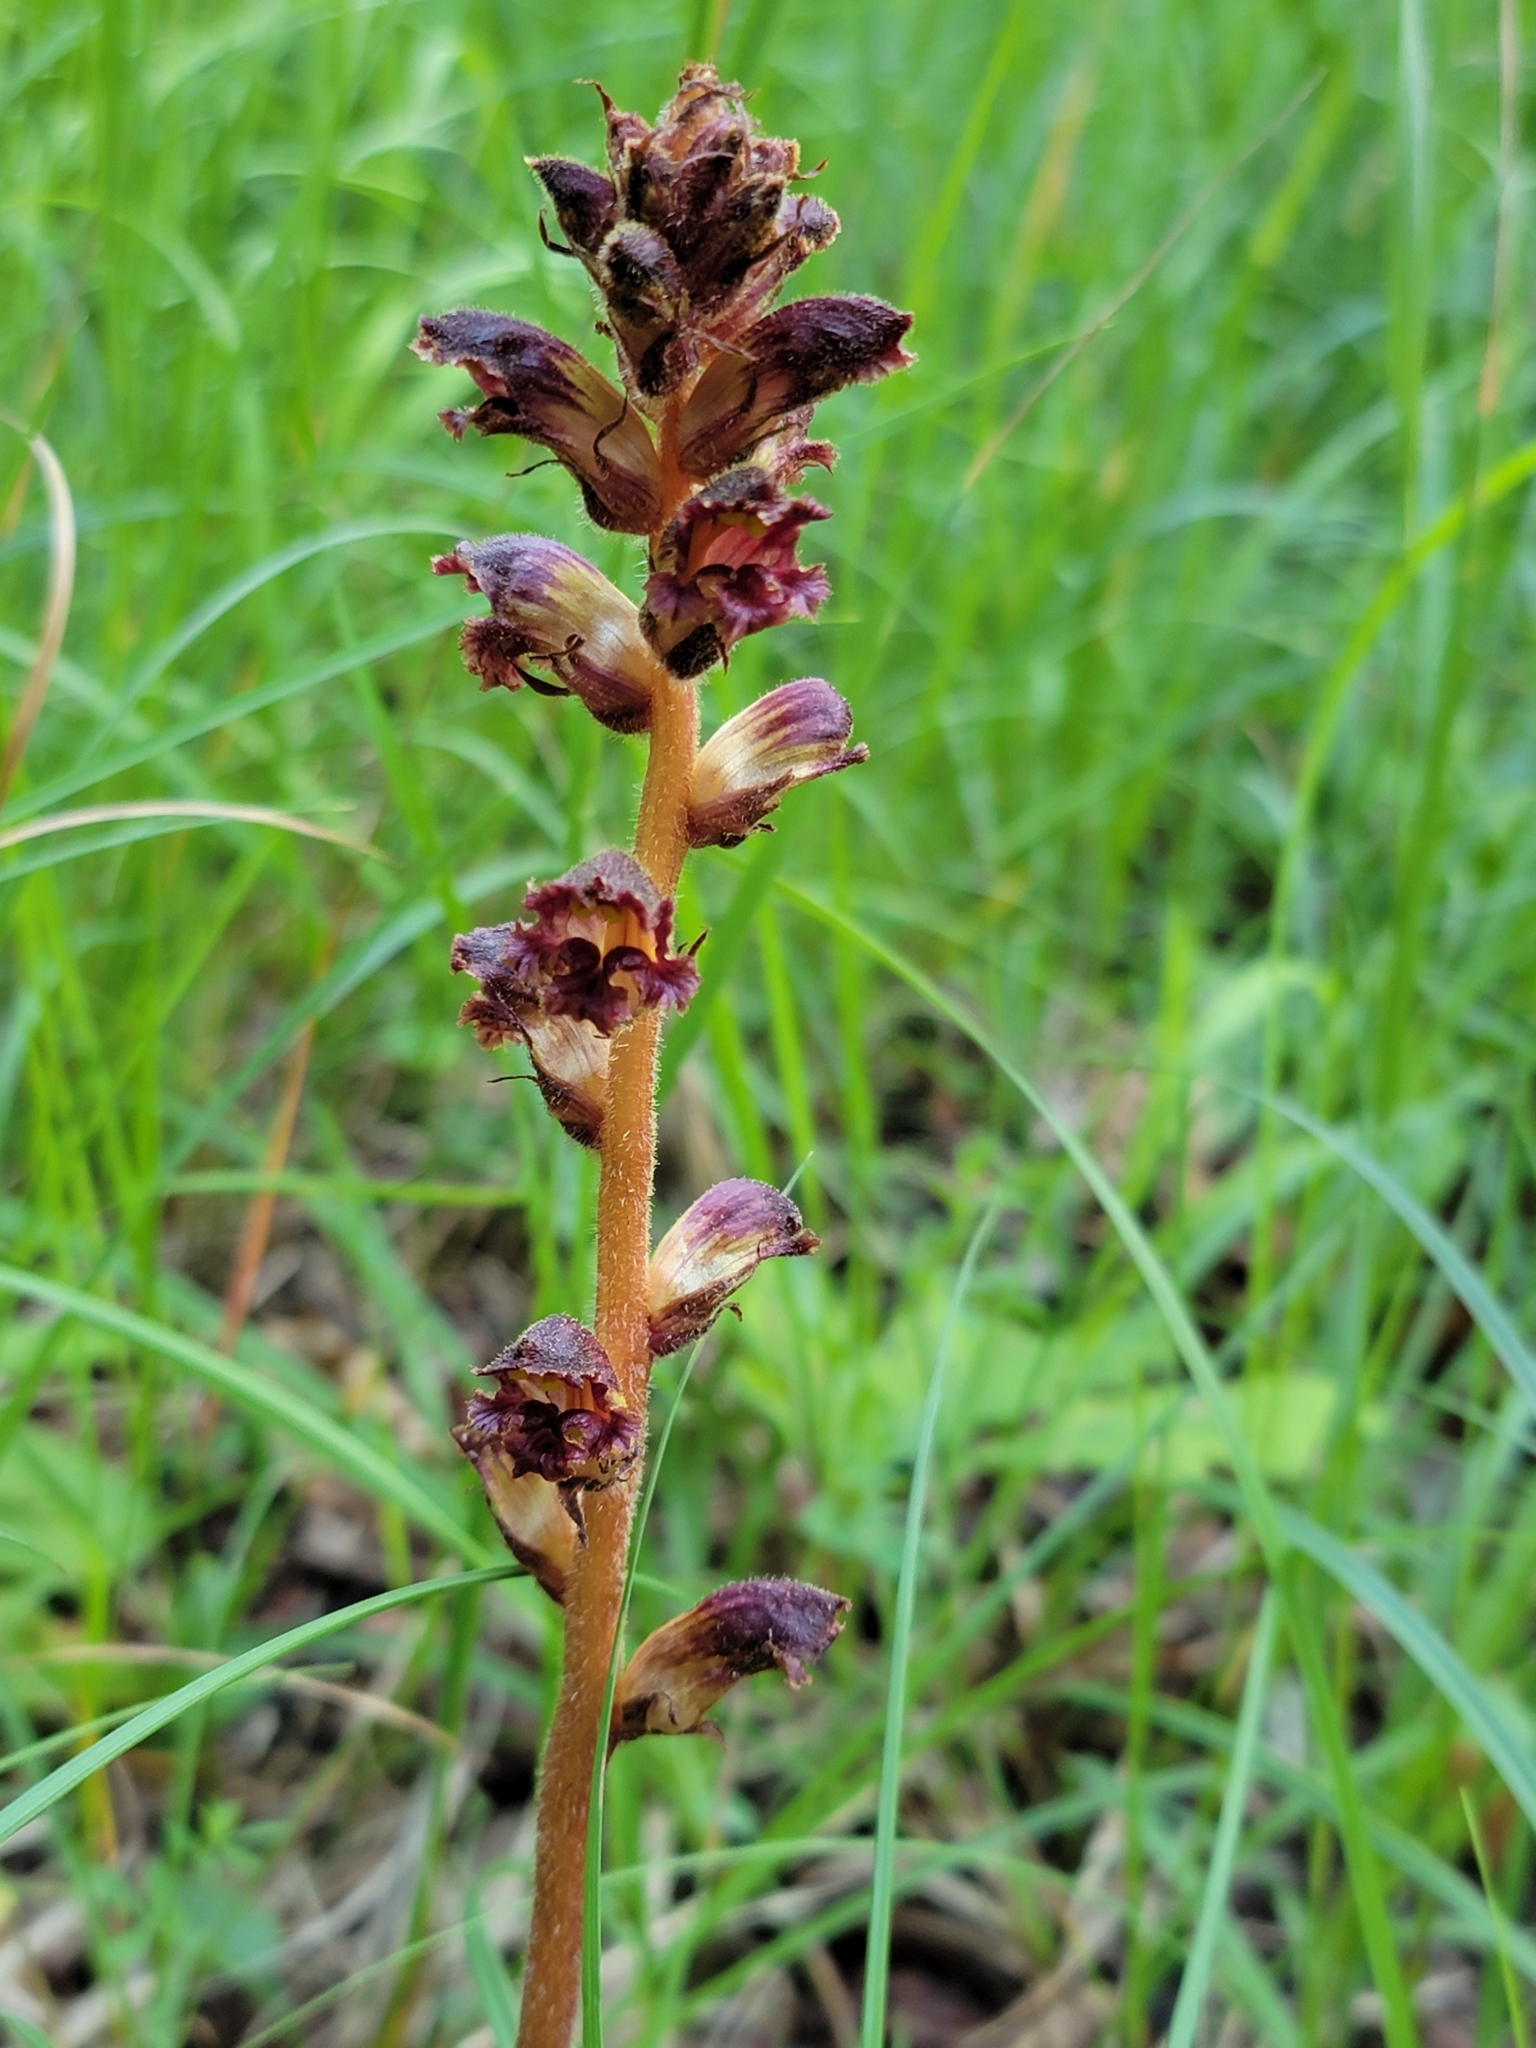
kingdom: Plantae
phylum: Tracheophyta
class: Magnoliopsida
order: Lamiales
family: Orobanchaceae
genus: Orobanche
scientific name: Orobanche gracilis
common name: Slender broomrape
